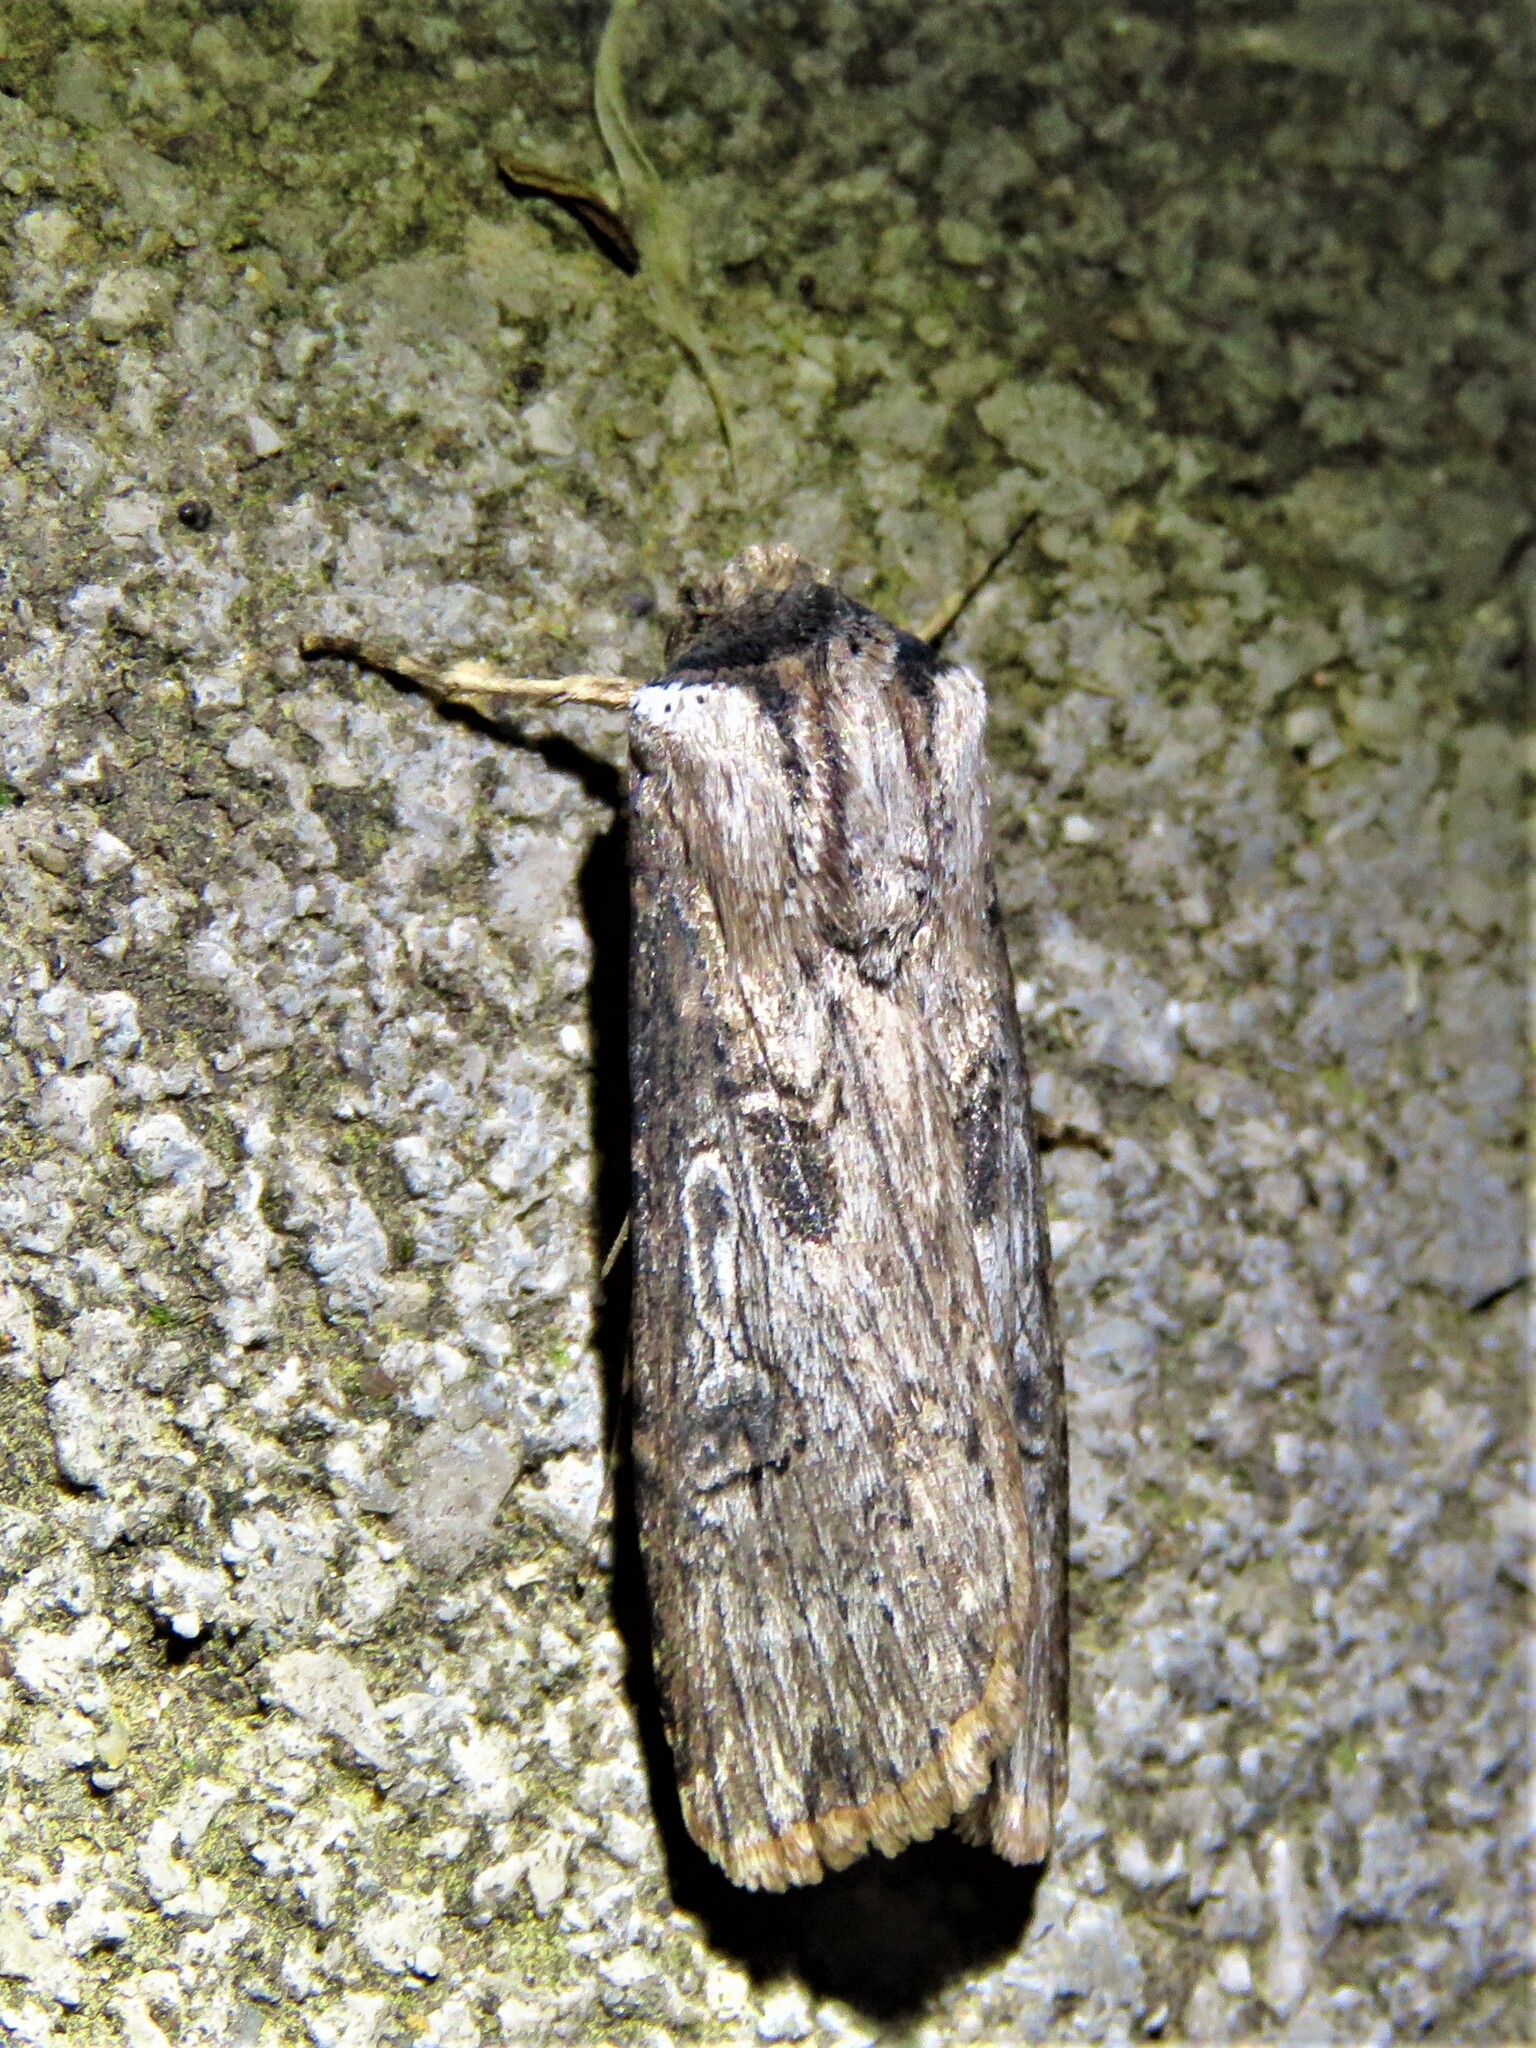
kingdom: Animalia
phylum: Arthropoda
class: Insecta
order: Lepidoptera
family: Noctuidae
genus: Agrotis
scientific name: Agrotis ipsilon
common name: Dark sword-grass
